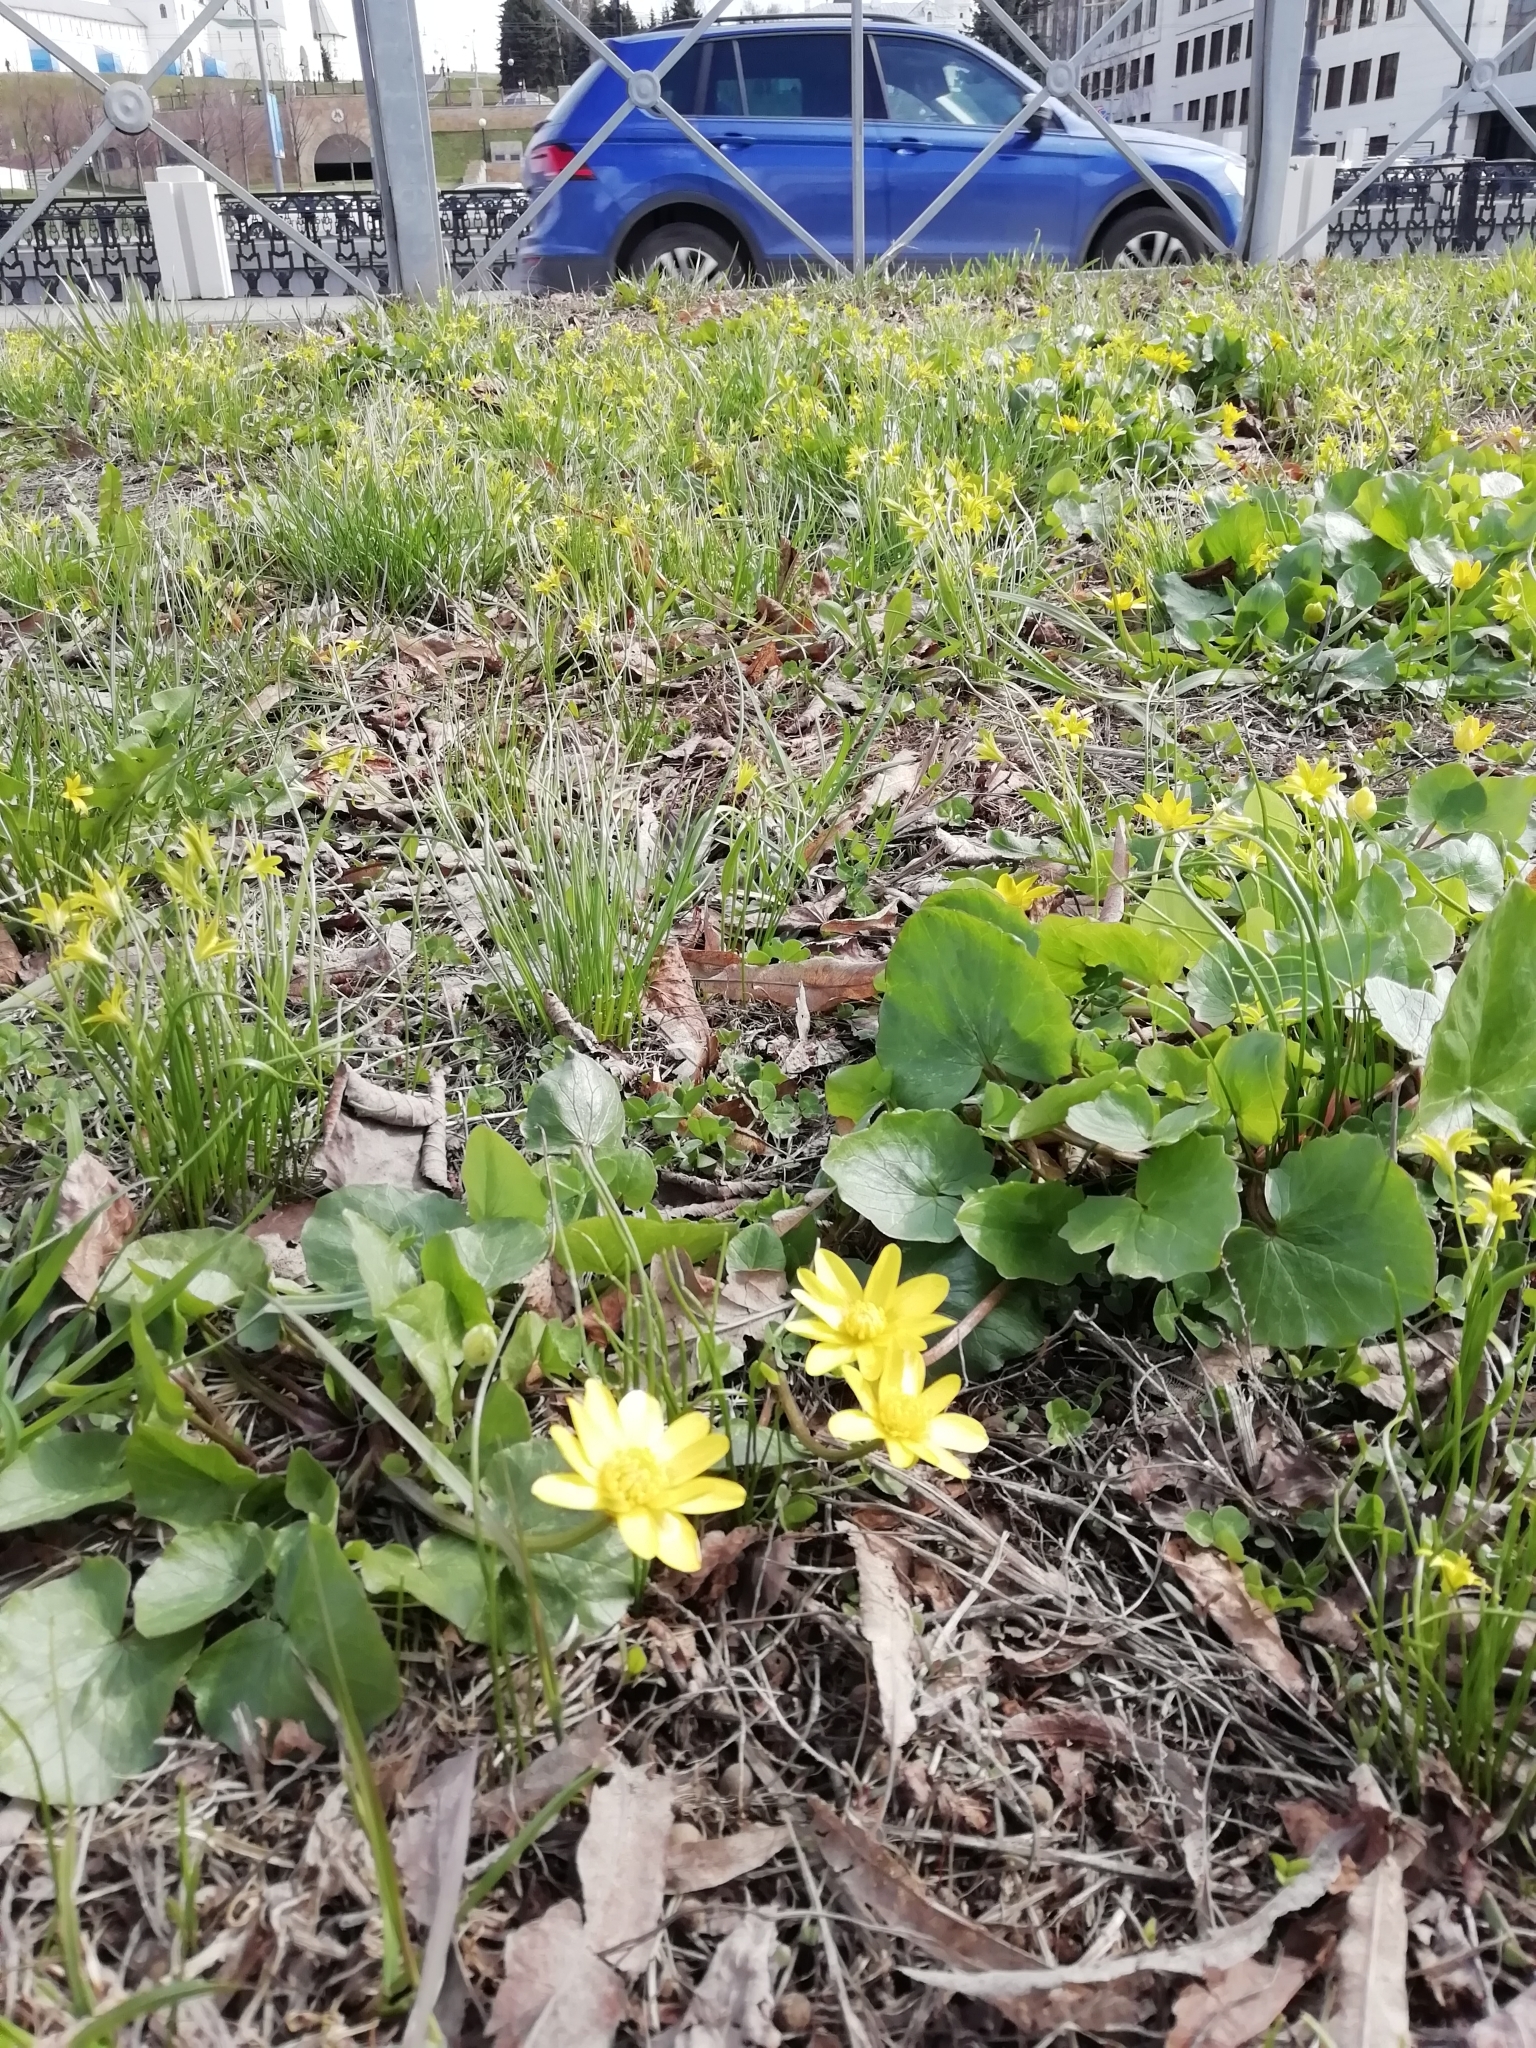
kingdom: Plantae
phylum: Tracheophyta
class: Magnoliopsida
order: Ranunculales
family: Ranunculaceae
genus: Ficaria
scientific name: Ficaria verna
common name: Lesser celandine
